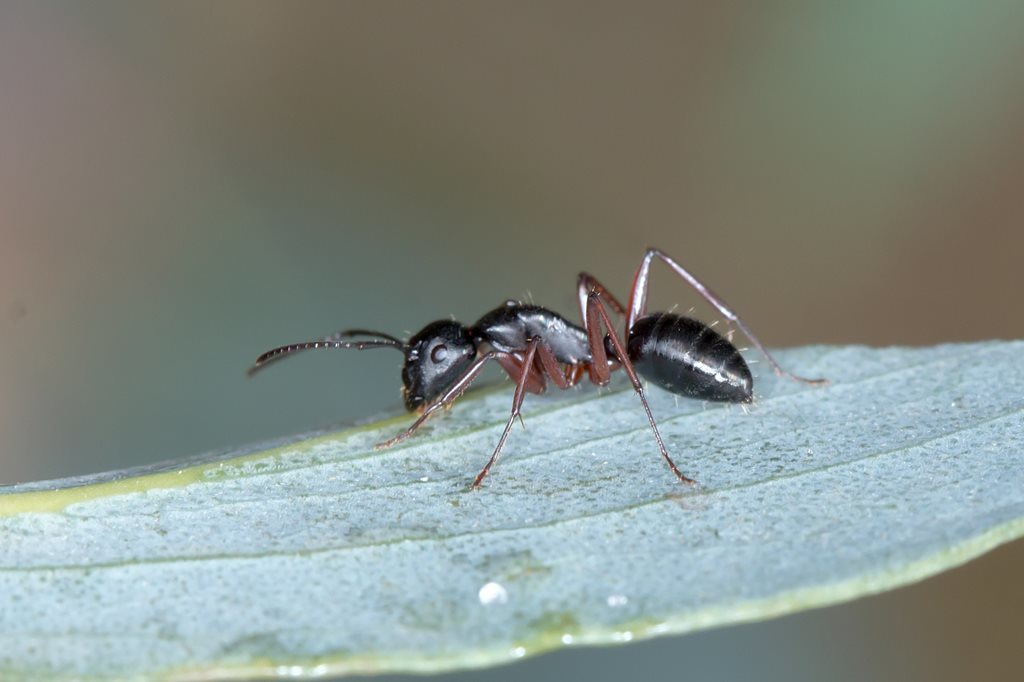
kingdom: Animalia
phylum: Arthropoda
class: Insecta
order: Hymenoptera
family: Formicidae
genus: Camponotus
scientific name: Camponotus hartogi
